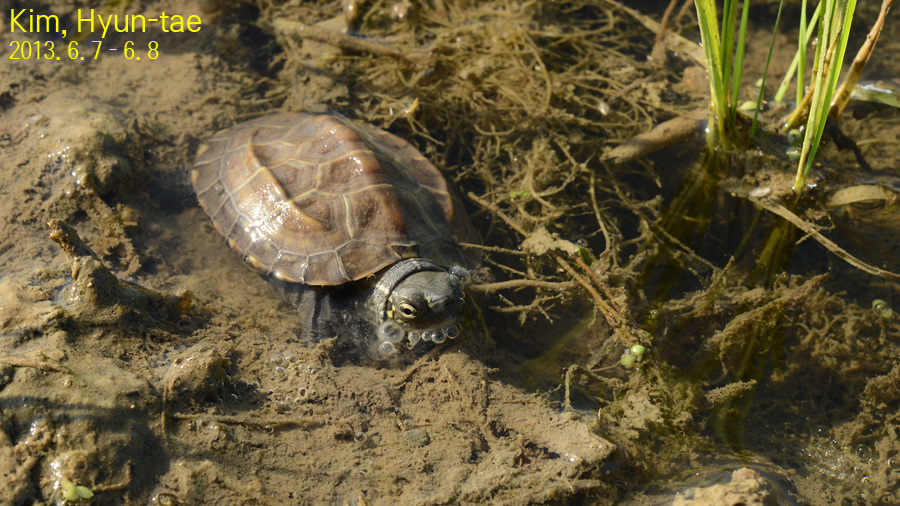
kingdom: Animalia
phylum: Chordata
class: Testudines
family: Geoemydidae
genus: Mauremys
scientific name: Mauremys reevesii
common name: Chinese pond turtle
